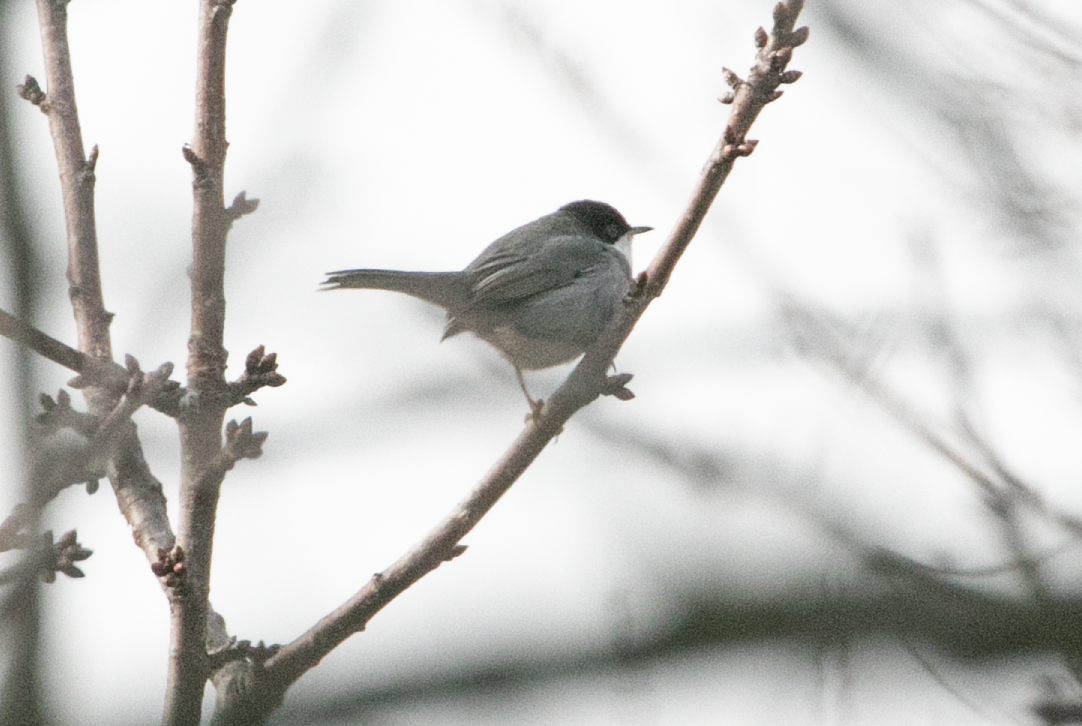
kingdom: Animalia
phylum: Chordata
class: Aves
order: Passeriformes
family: Sylviidae
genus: Curruca
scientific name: Curruca melanocephala
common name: Sardinian warbler
